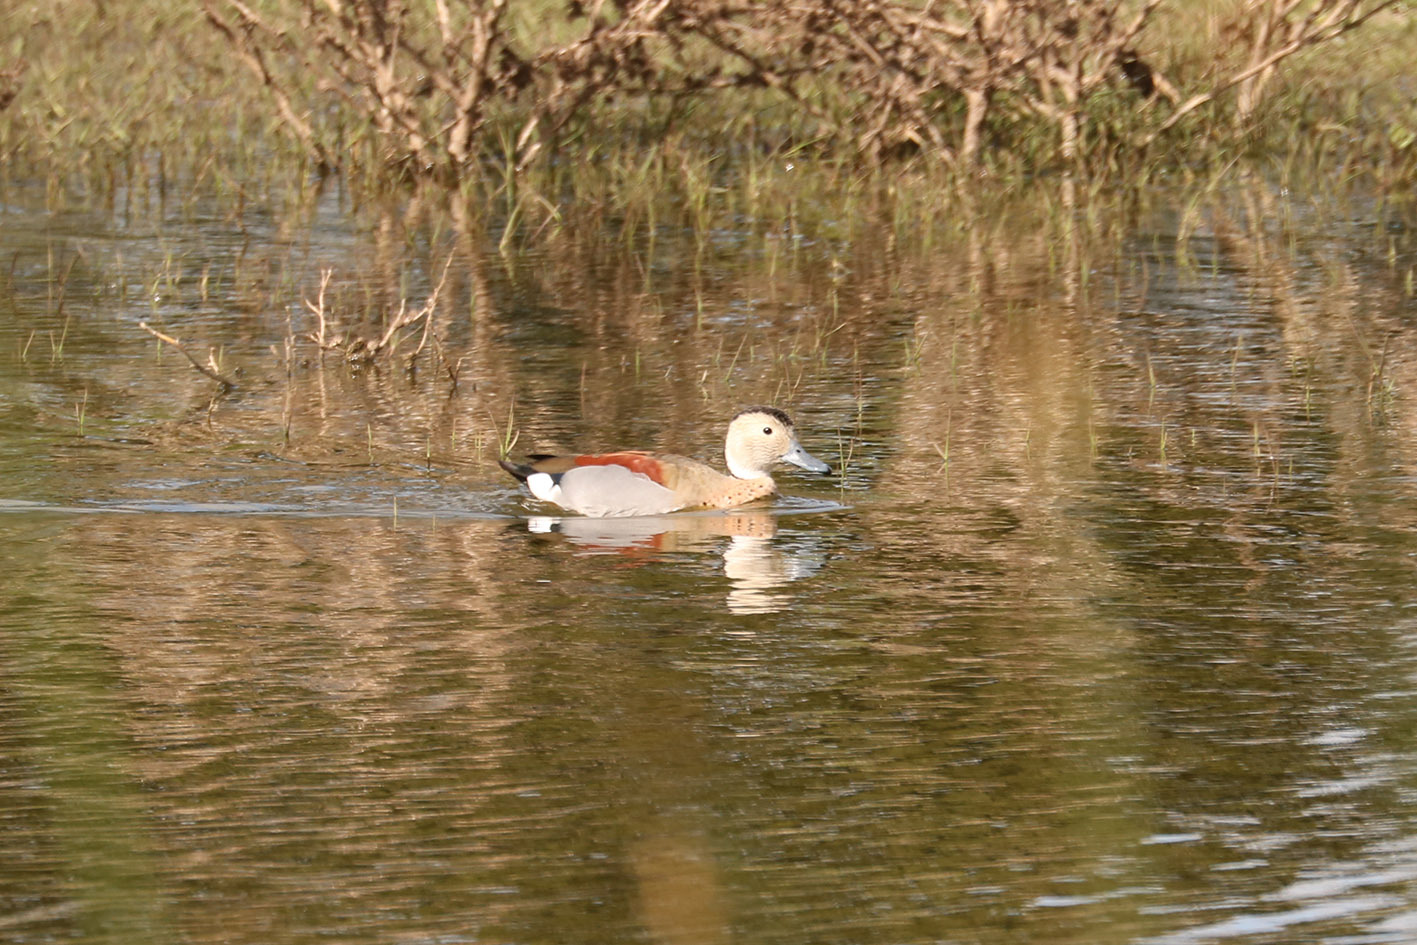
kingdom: Animalia
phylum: Chordata
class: Aves
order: Anseriformes
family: Anatidae
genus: Callonetta
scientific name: Callonetta leucophrys
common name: Ringed teal
